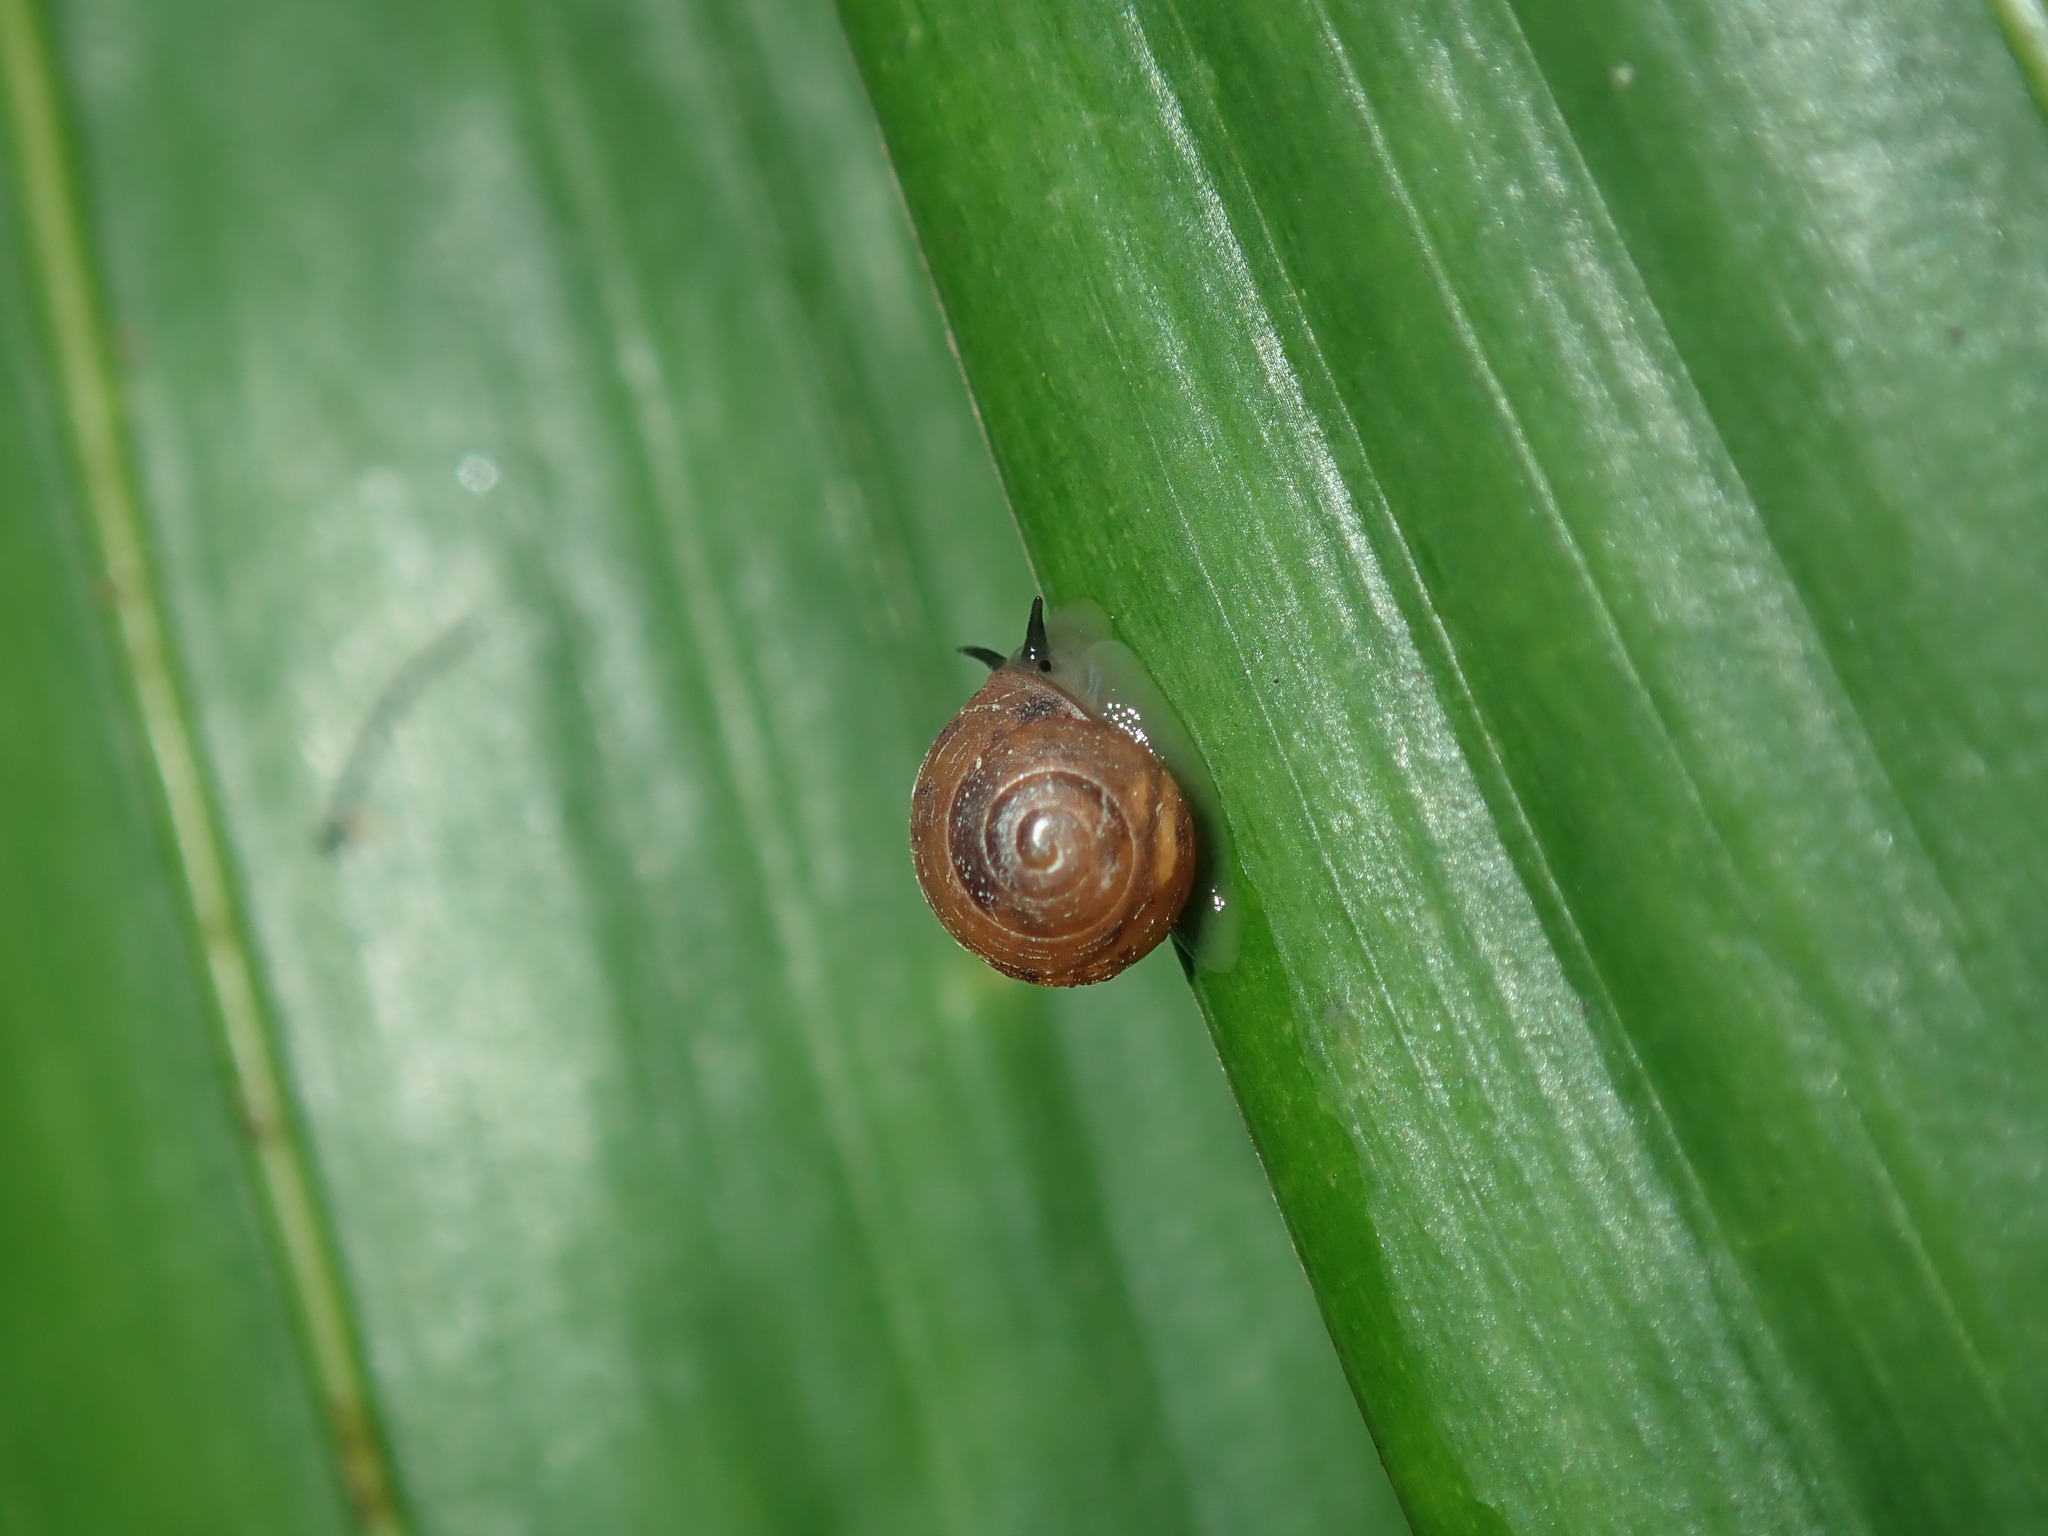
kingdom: Animalia
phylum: Mollusca
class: Gastropoda
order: Cycloneritida
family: Helicinidae
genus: Pleuropoma
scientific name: Pleuropoma jana
